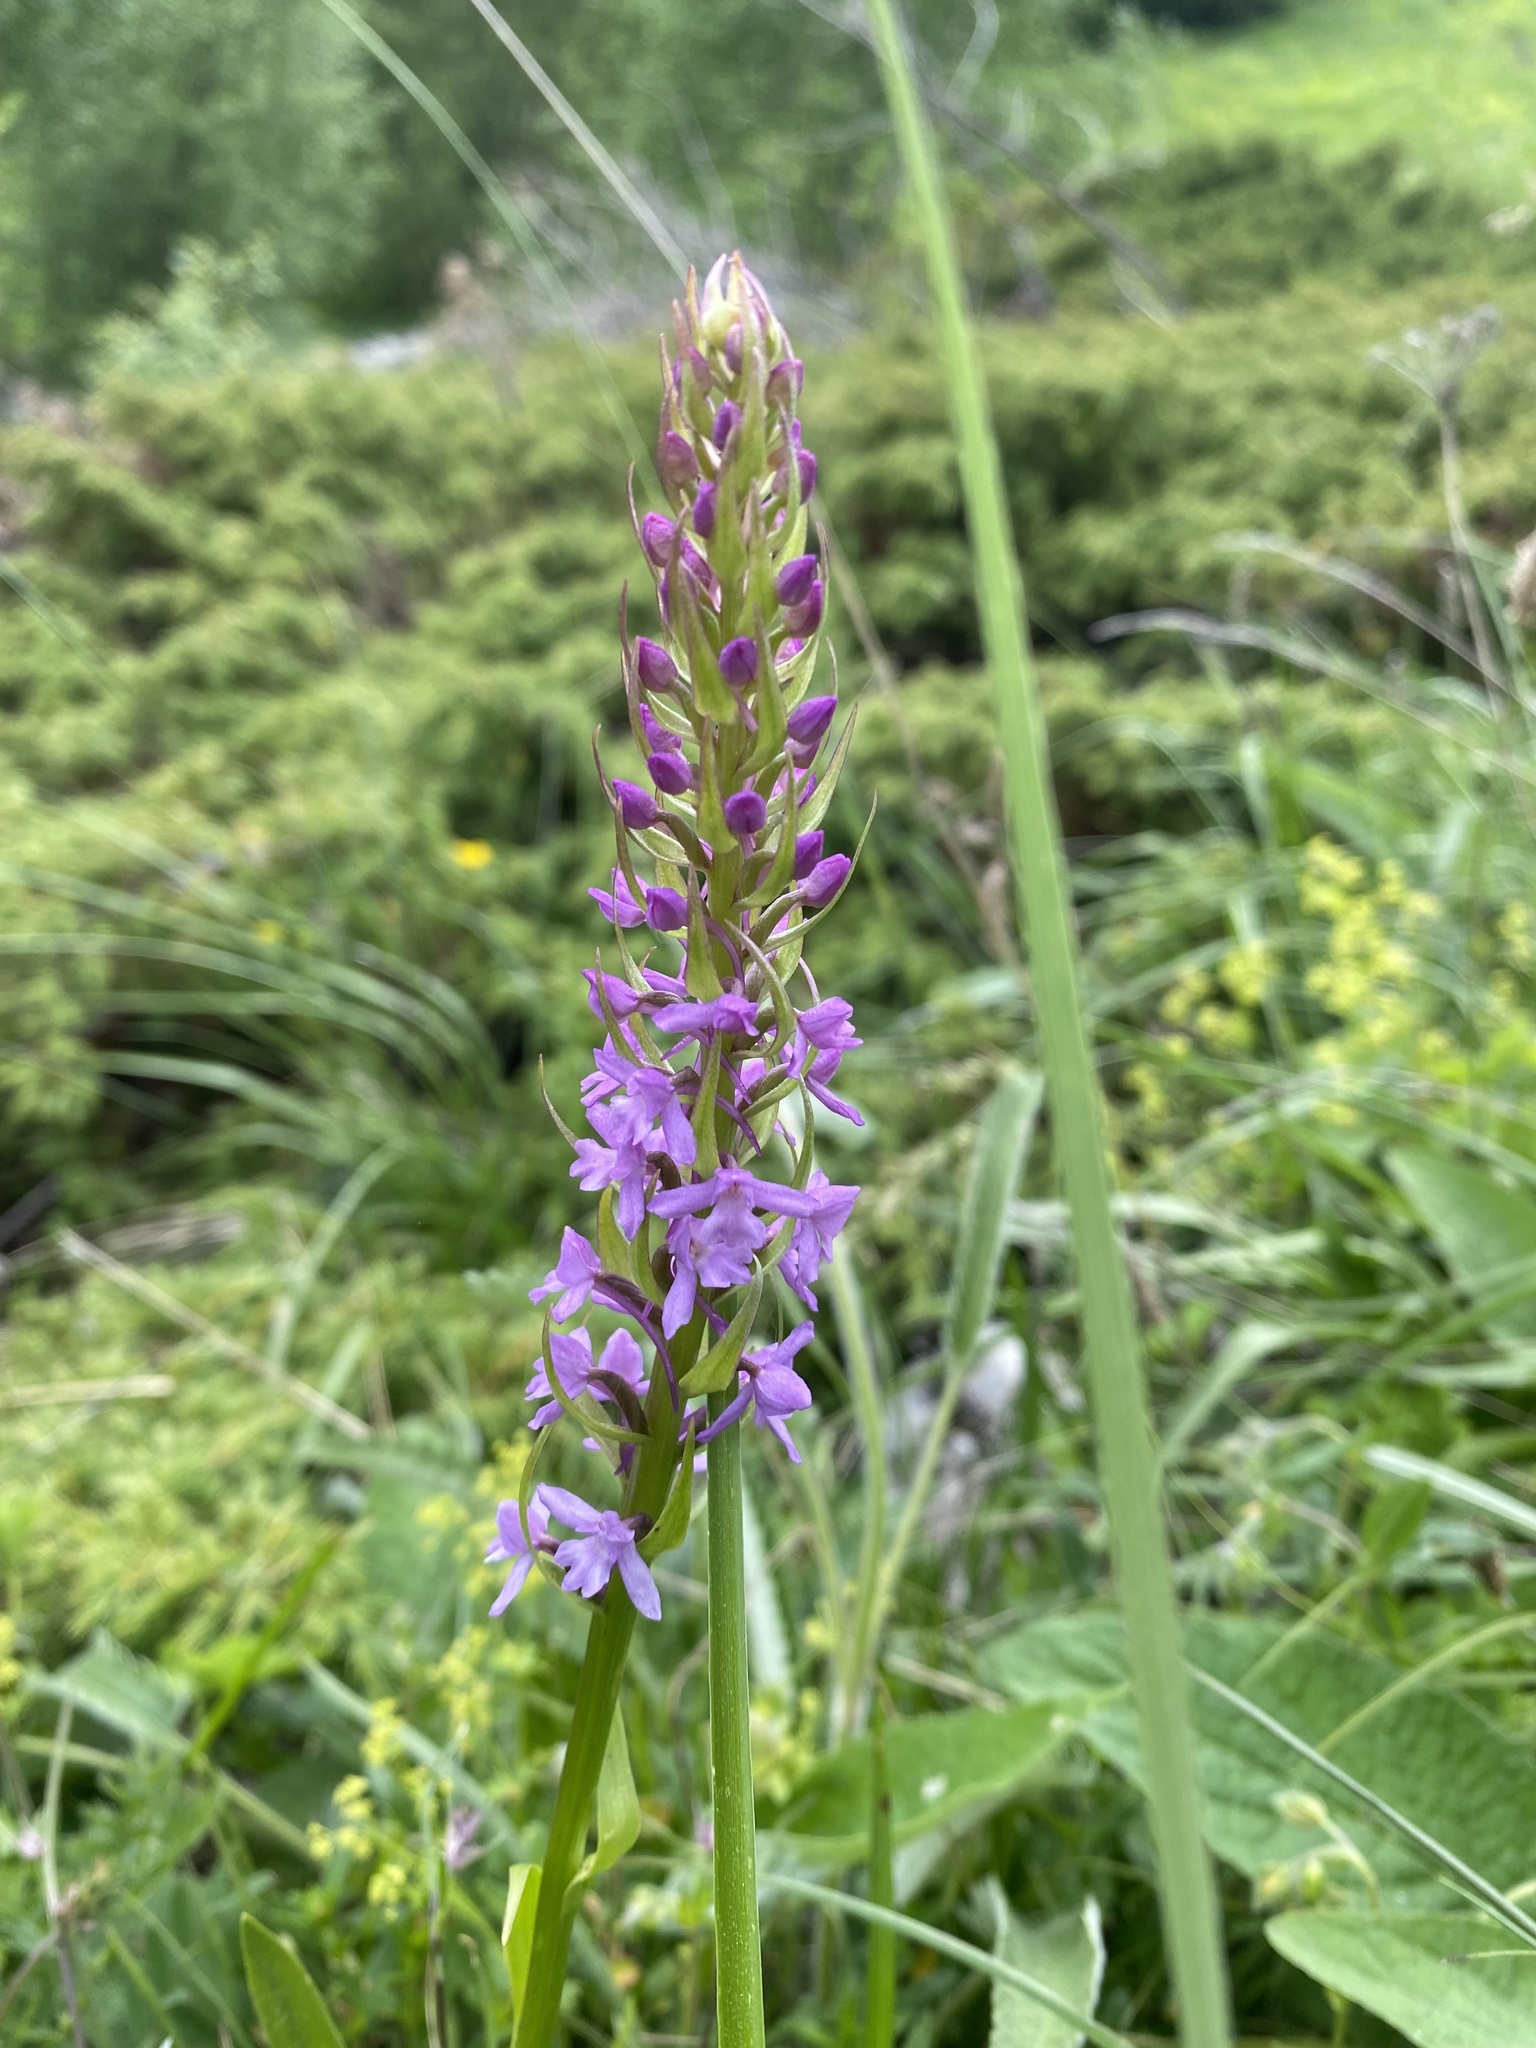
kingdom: Plantae
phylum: Tracheophyta
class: Liliopsida
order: Asparagales
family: Orchidaceae
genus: Gymnadenia
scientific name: Gymnadenia conopsea
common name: Fragrant orchid
